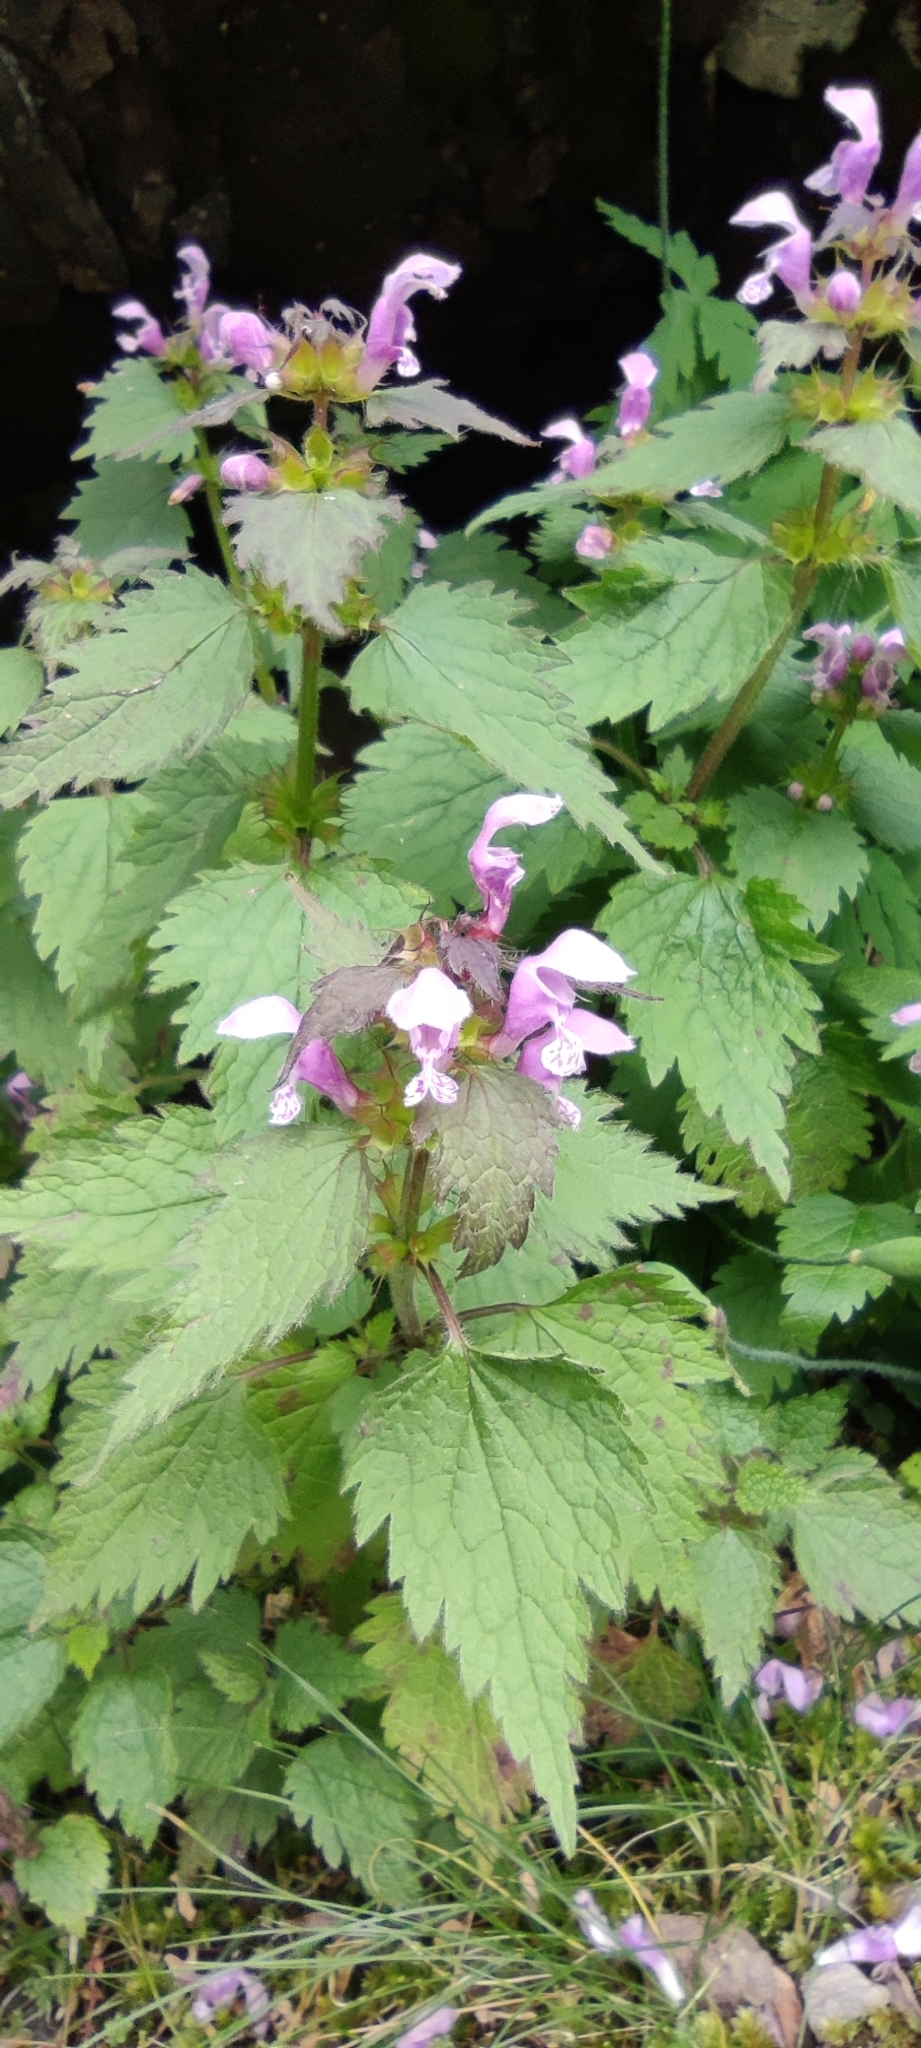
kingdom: Plantae
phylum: Tracheophyta
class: Magnoliopsida
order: Lamiales
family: Lamiaceae
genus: Lamium
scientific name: Lamium maculatum
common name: Spotted dead-nettle
